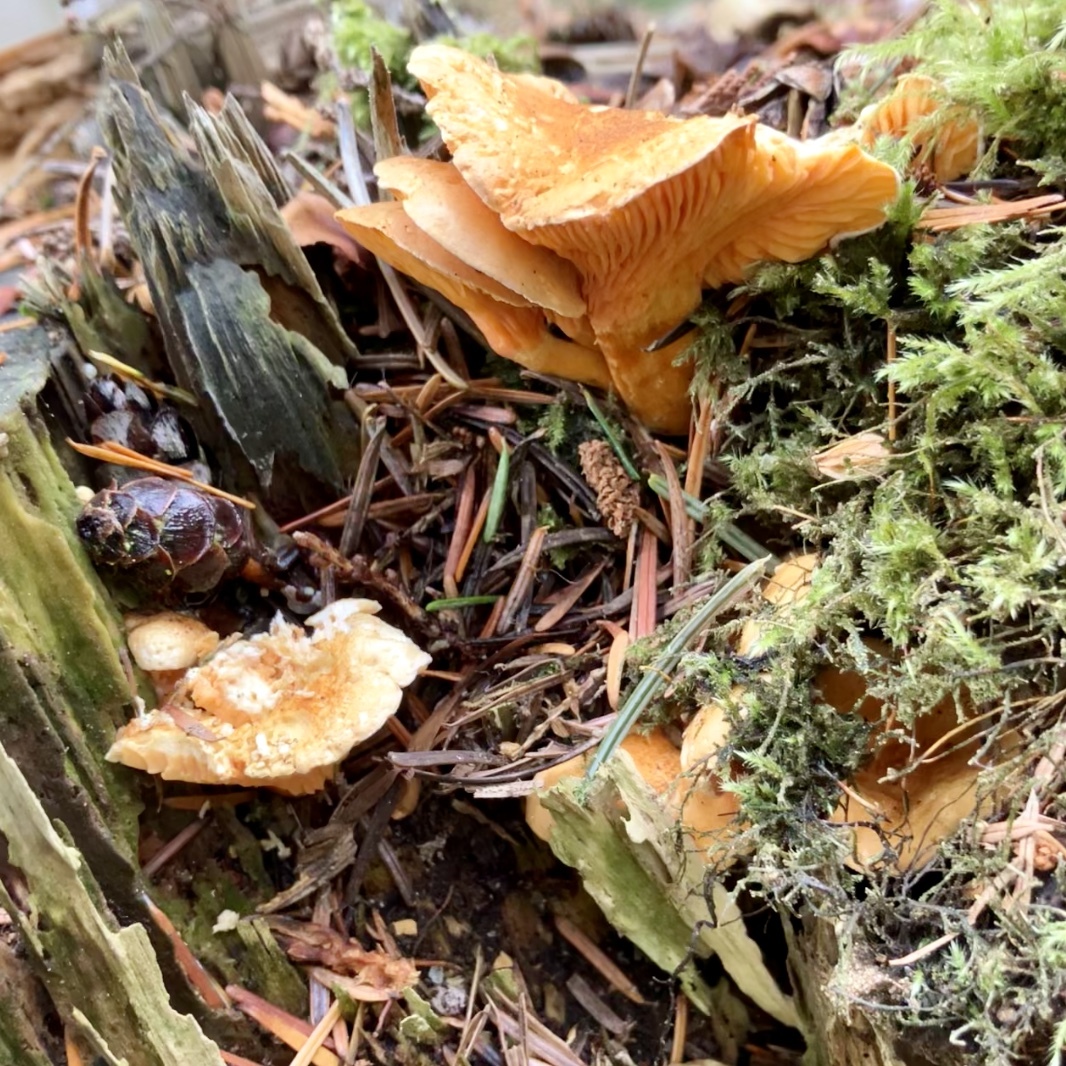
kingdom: Fungi
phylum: Basidiomycota
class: Agaricomycetes
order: Boletales
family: Hygrophoropsidaceae
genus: Hygrophoropsis
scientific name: Hygrophoropsis aurantiaca
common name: False chanterelle
